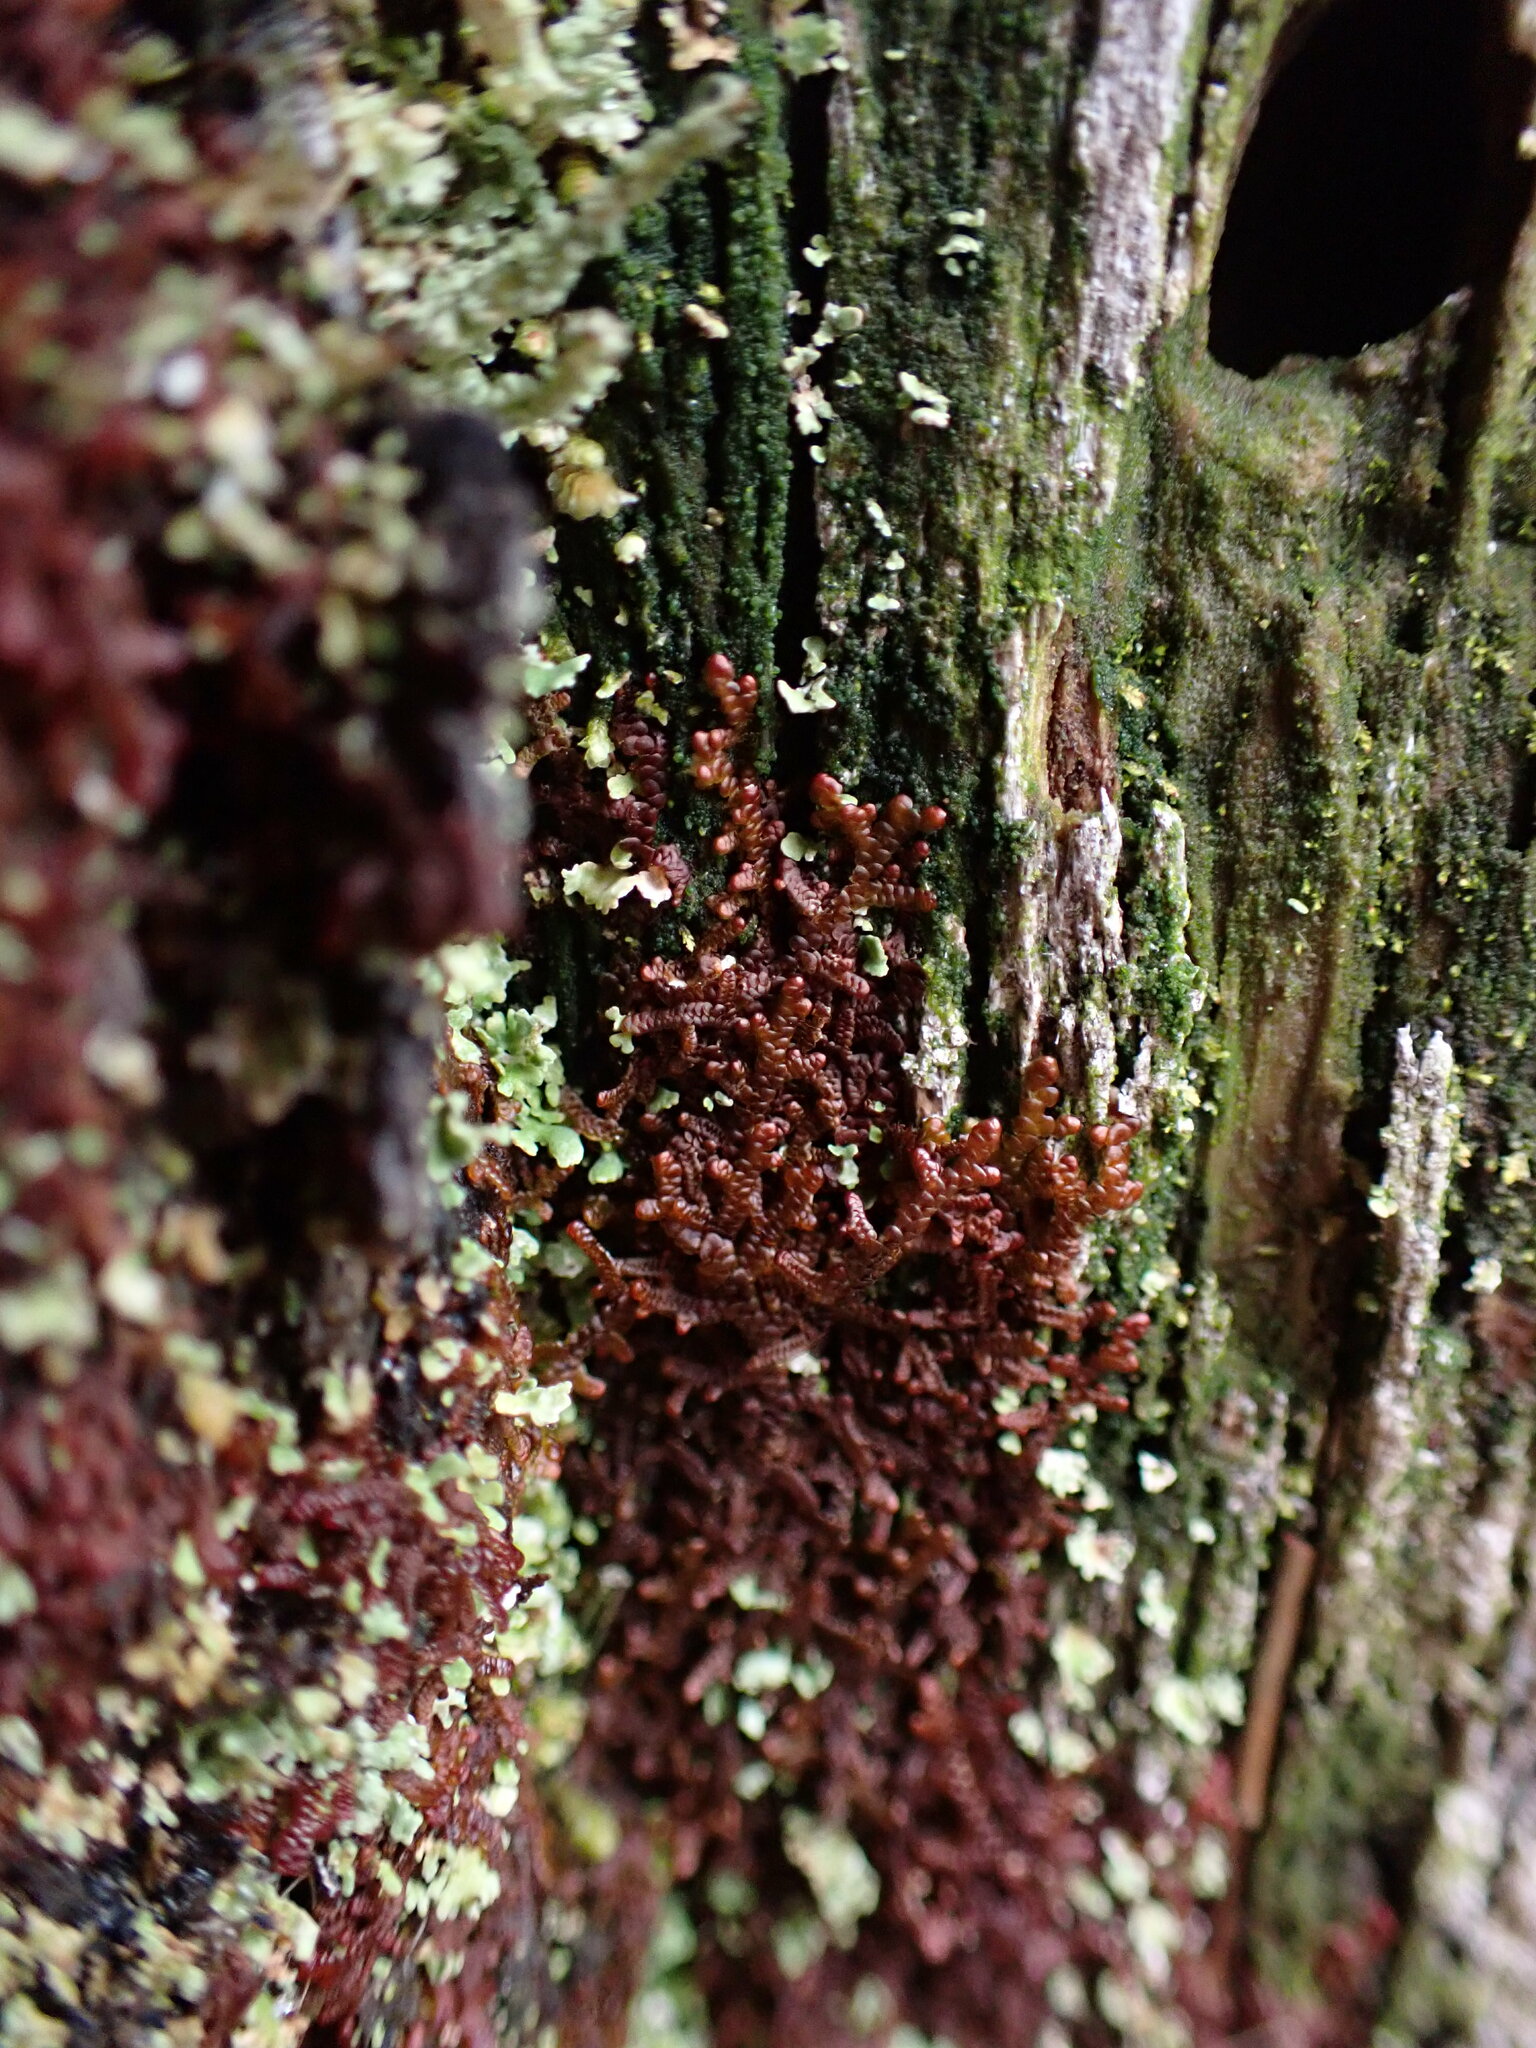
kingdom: Plantae
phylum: Marchantiophyta
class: Jungermanniopsida
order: Porellales
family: Frullaniaceae
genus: Frullania
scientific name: Frullania nisquallensis
